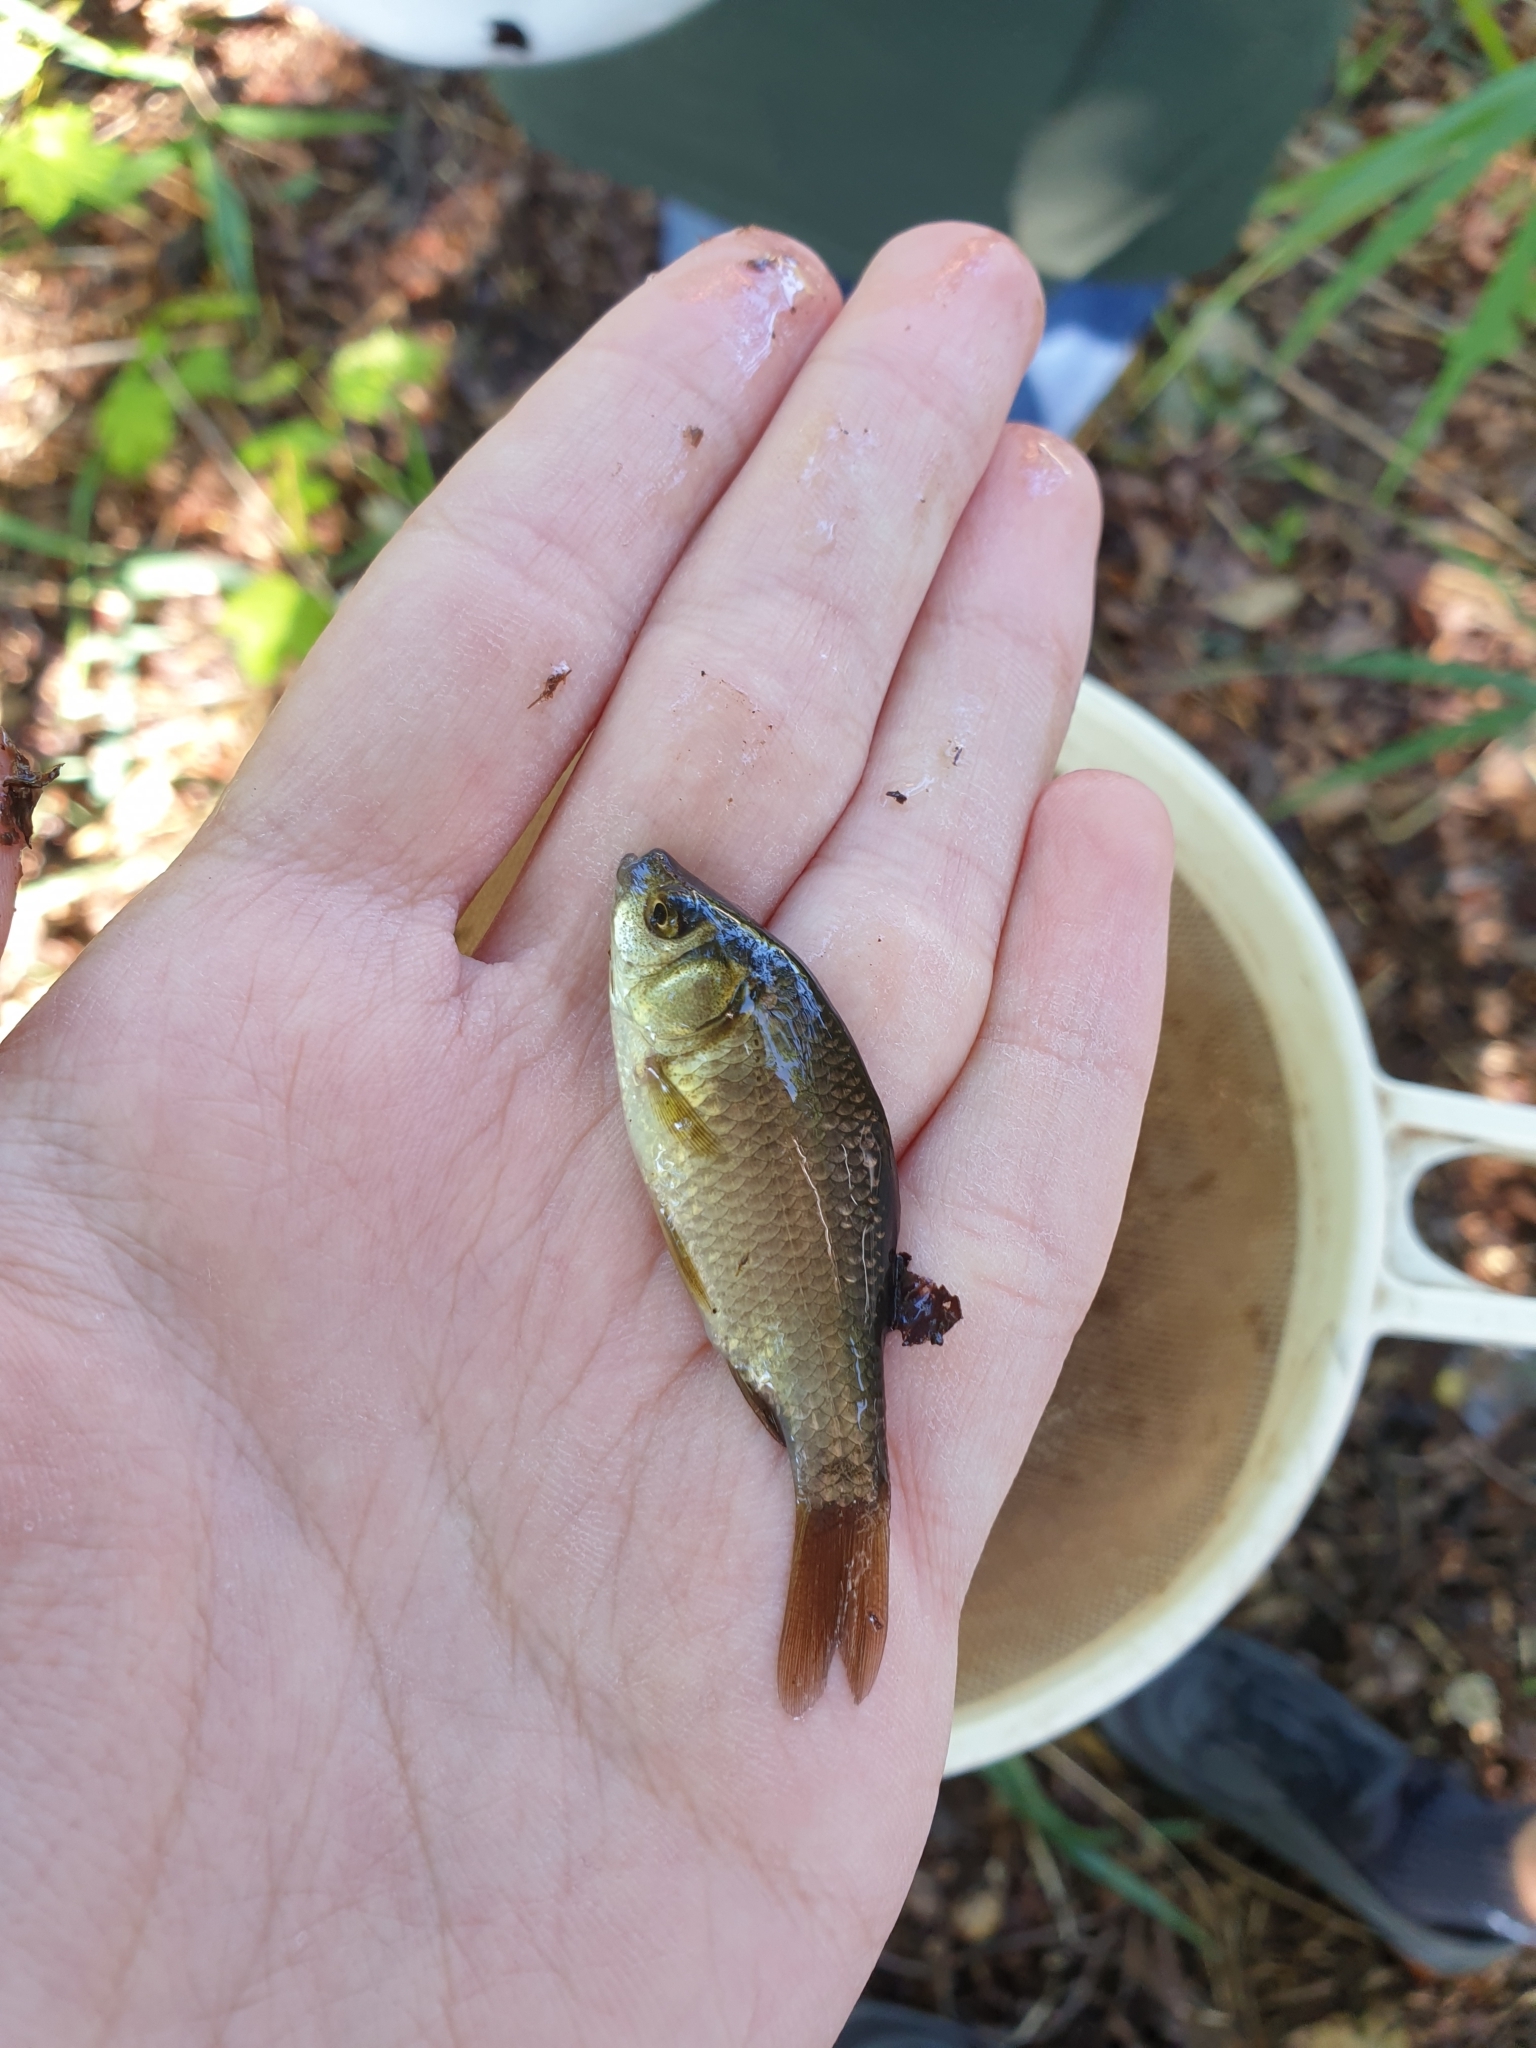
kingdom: Animalia
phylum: Chordata
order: Cypriniformes
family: Cyprinidae
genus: Carassius
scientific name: Carassius carassius
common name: Crucian carp
